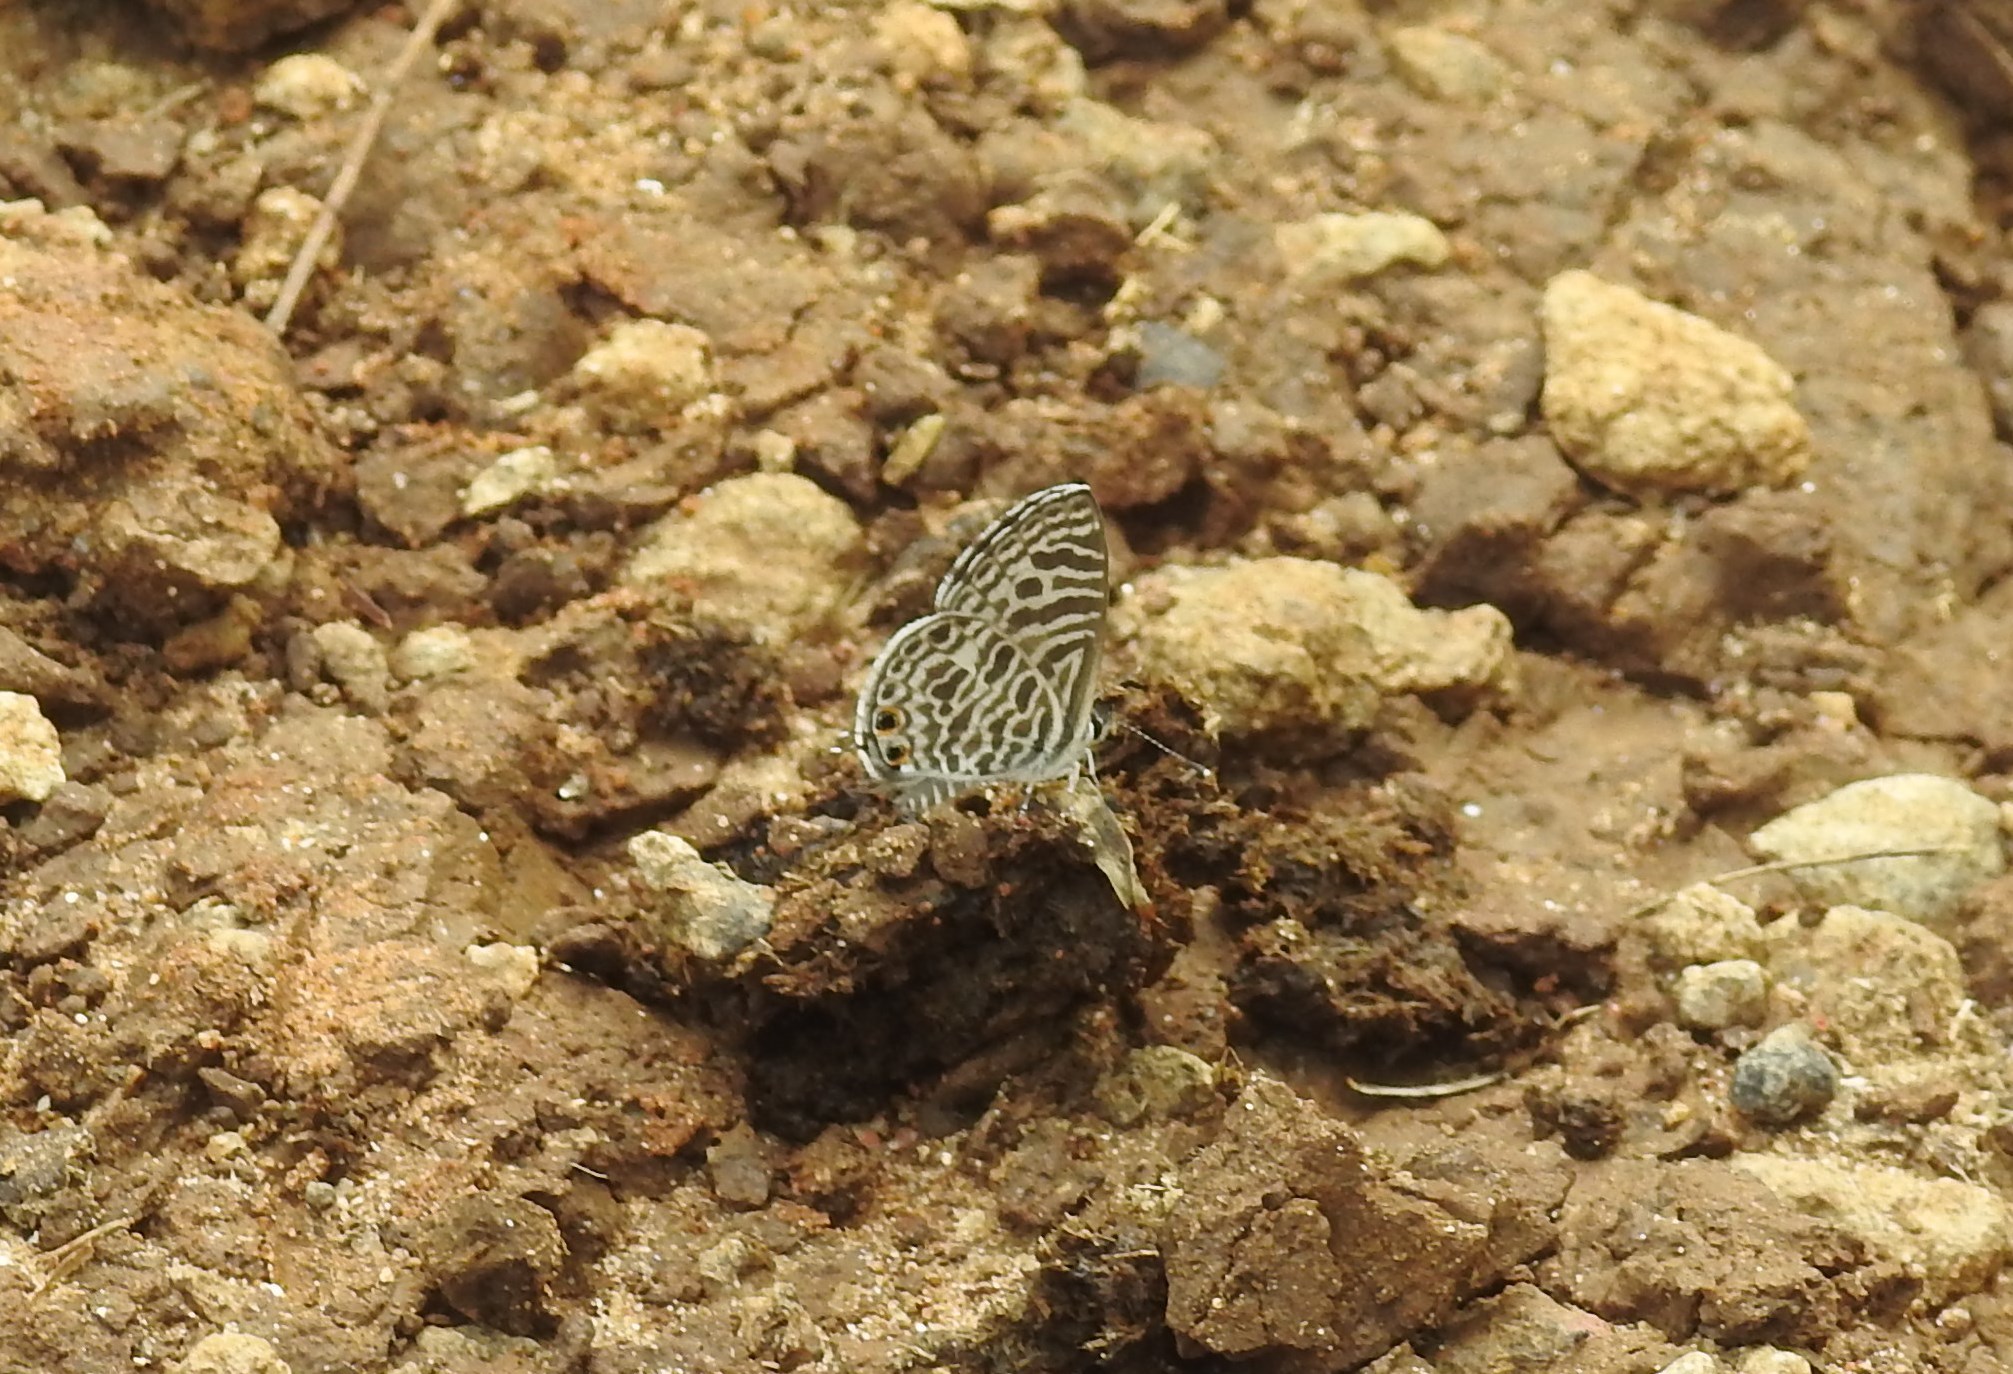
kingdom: Animalia
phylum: Arthropoda
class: Insecta
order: Lepidoptera
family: Lycaenidae
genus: Leptotes
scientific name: Leptotes plinius
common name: Zebra blue
